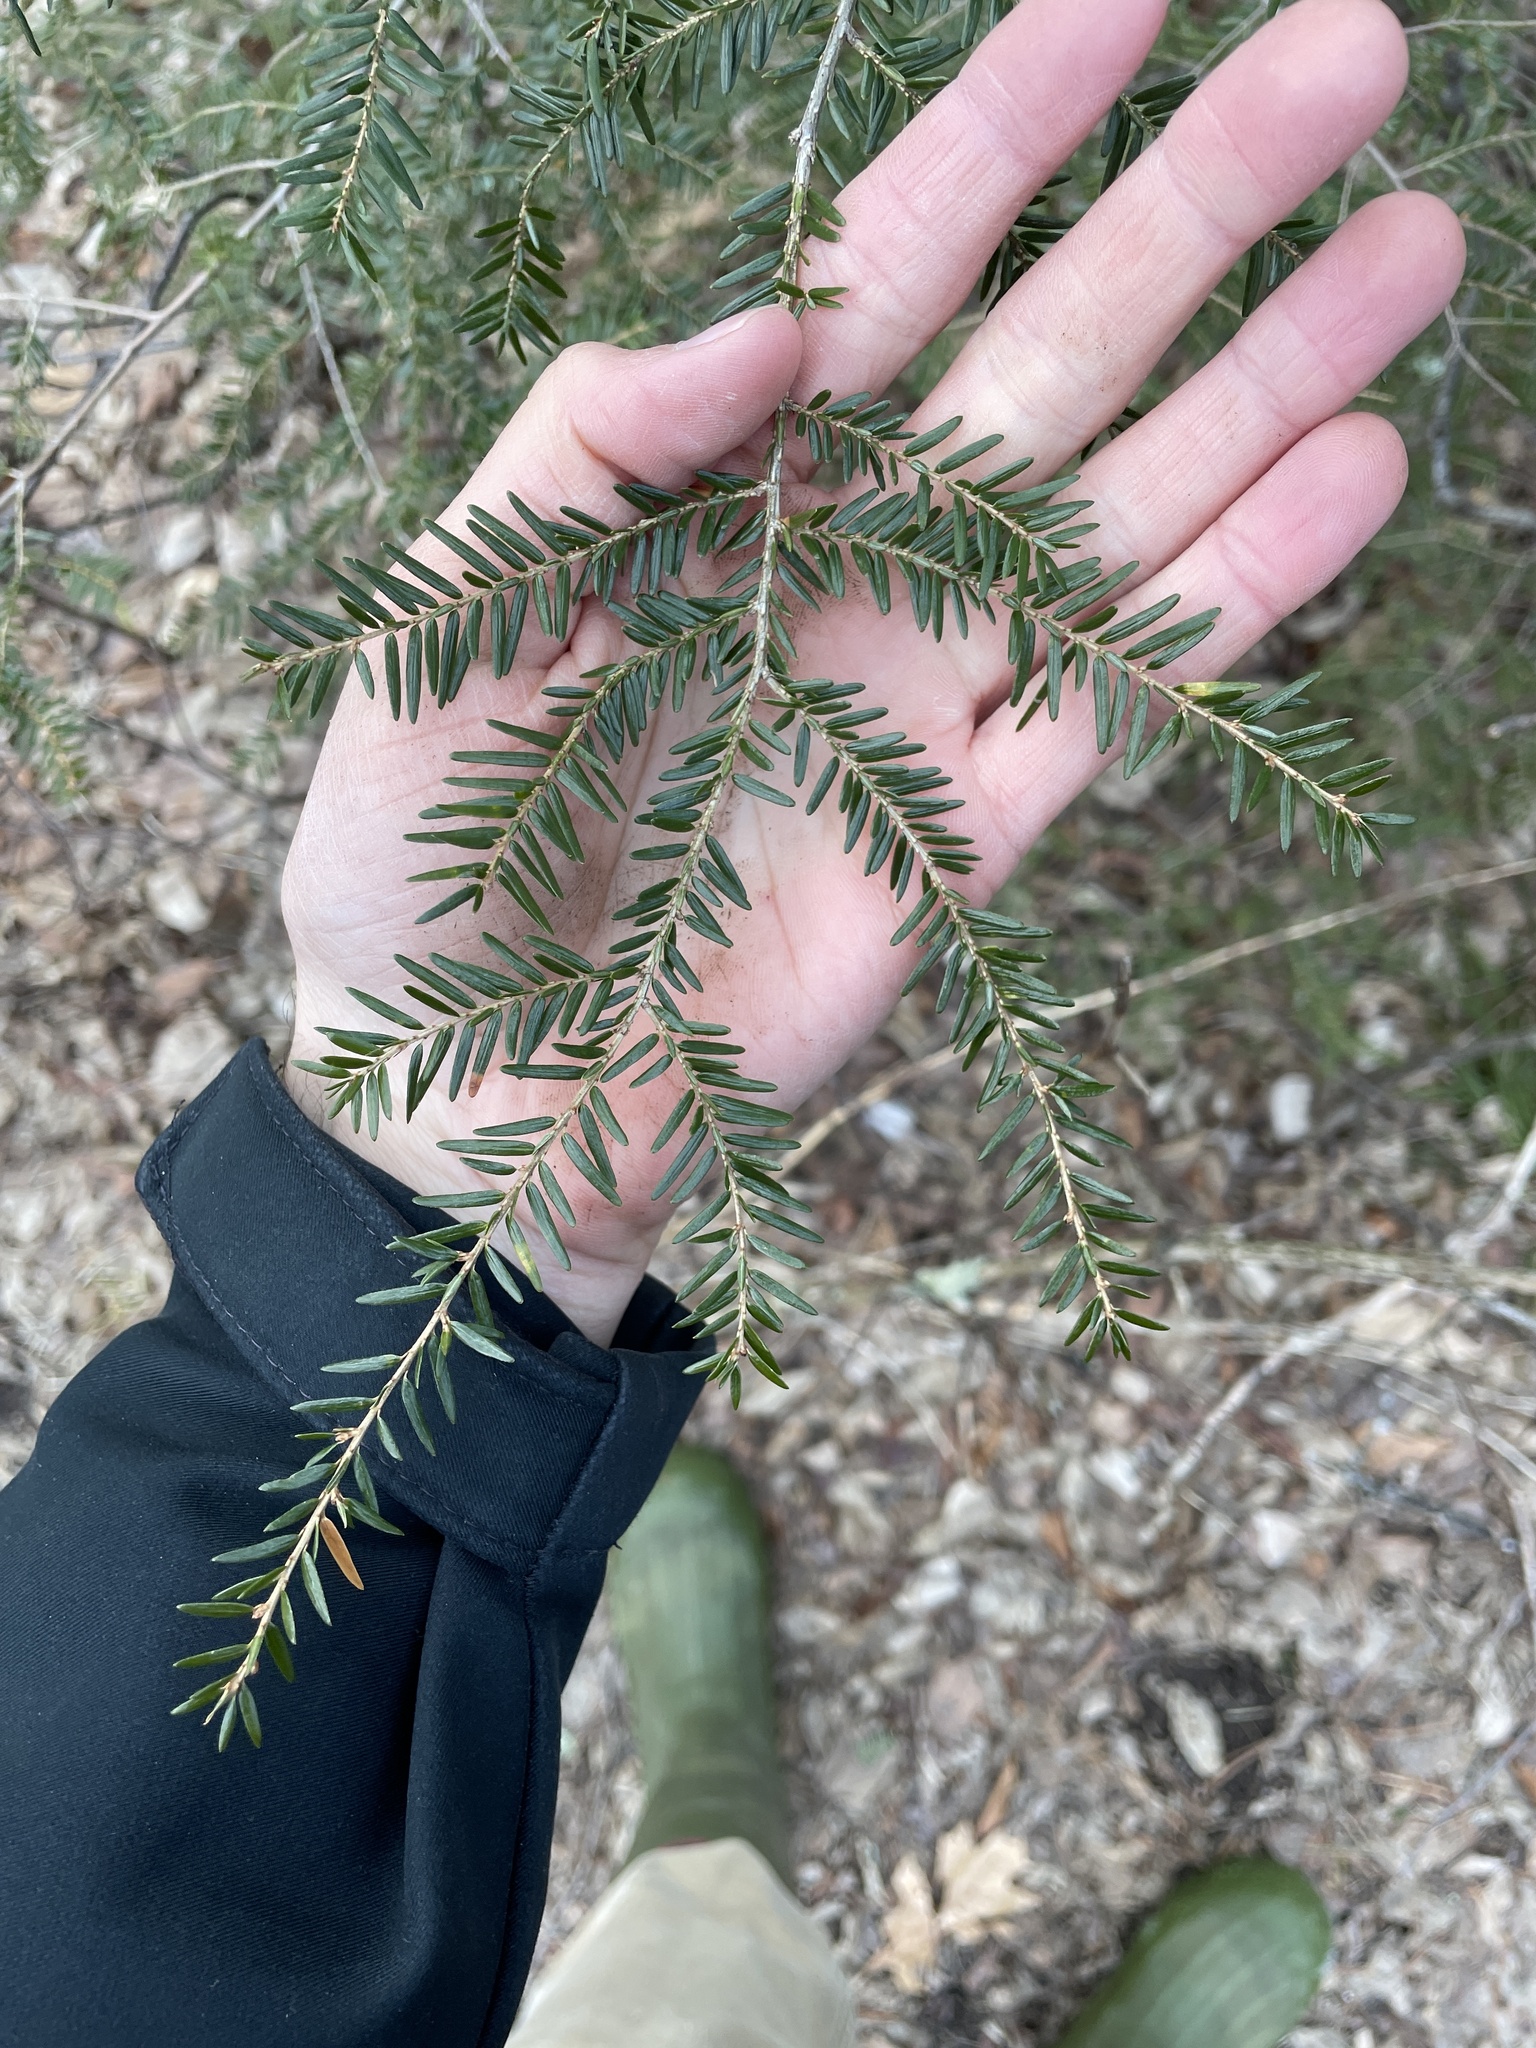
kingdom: Plantae
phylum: Tracheophyta
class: Pinopsida
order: Pinales
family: Pinaceae
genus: Tsuga
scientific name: Tsuga canadensis
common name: Eastern hemlock
